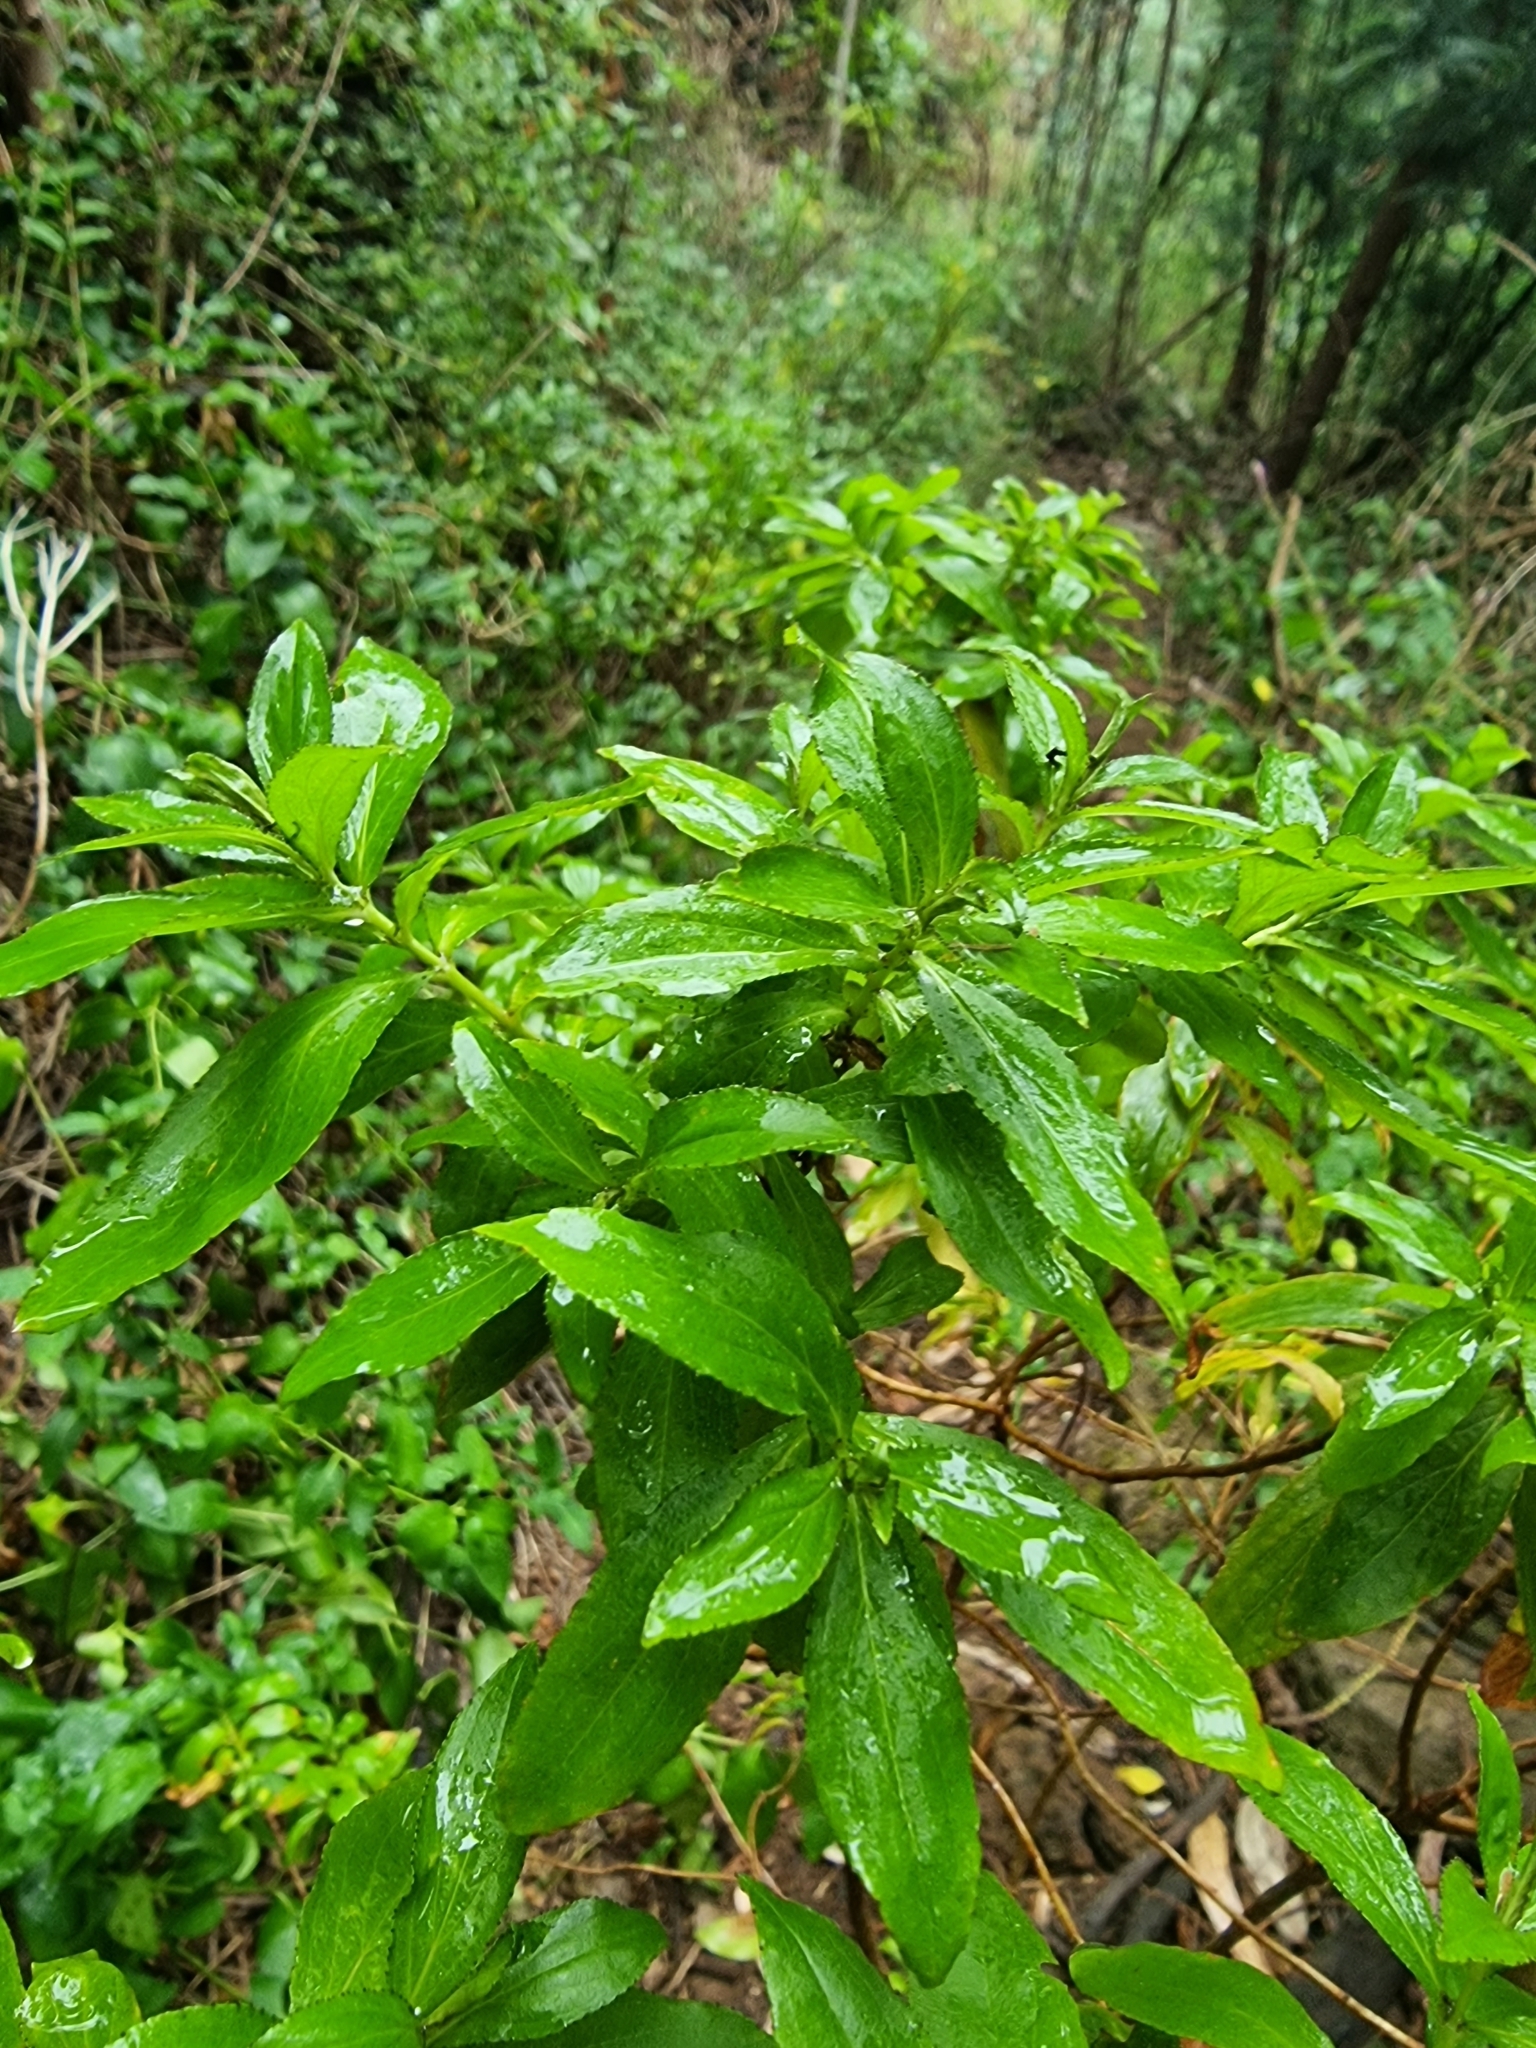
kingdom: Plantae
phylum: Tracheophyta
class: Magnoliopsida
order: Malpighiales
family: Hypericaceae
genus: Hypericum
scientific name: Hypericum glandulosum
